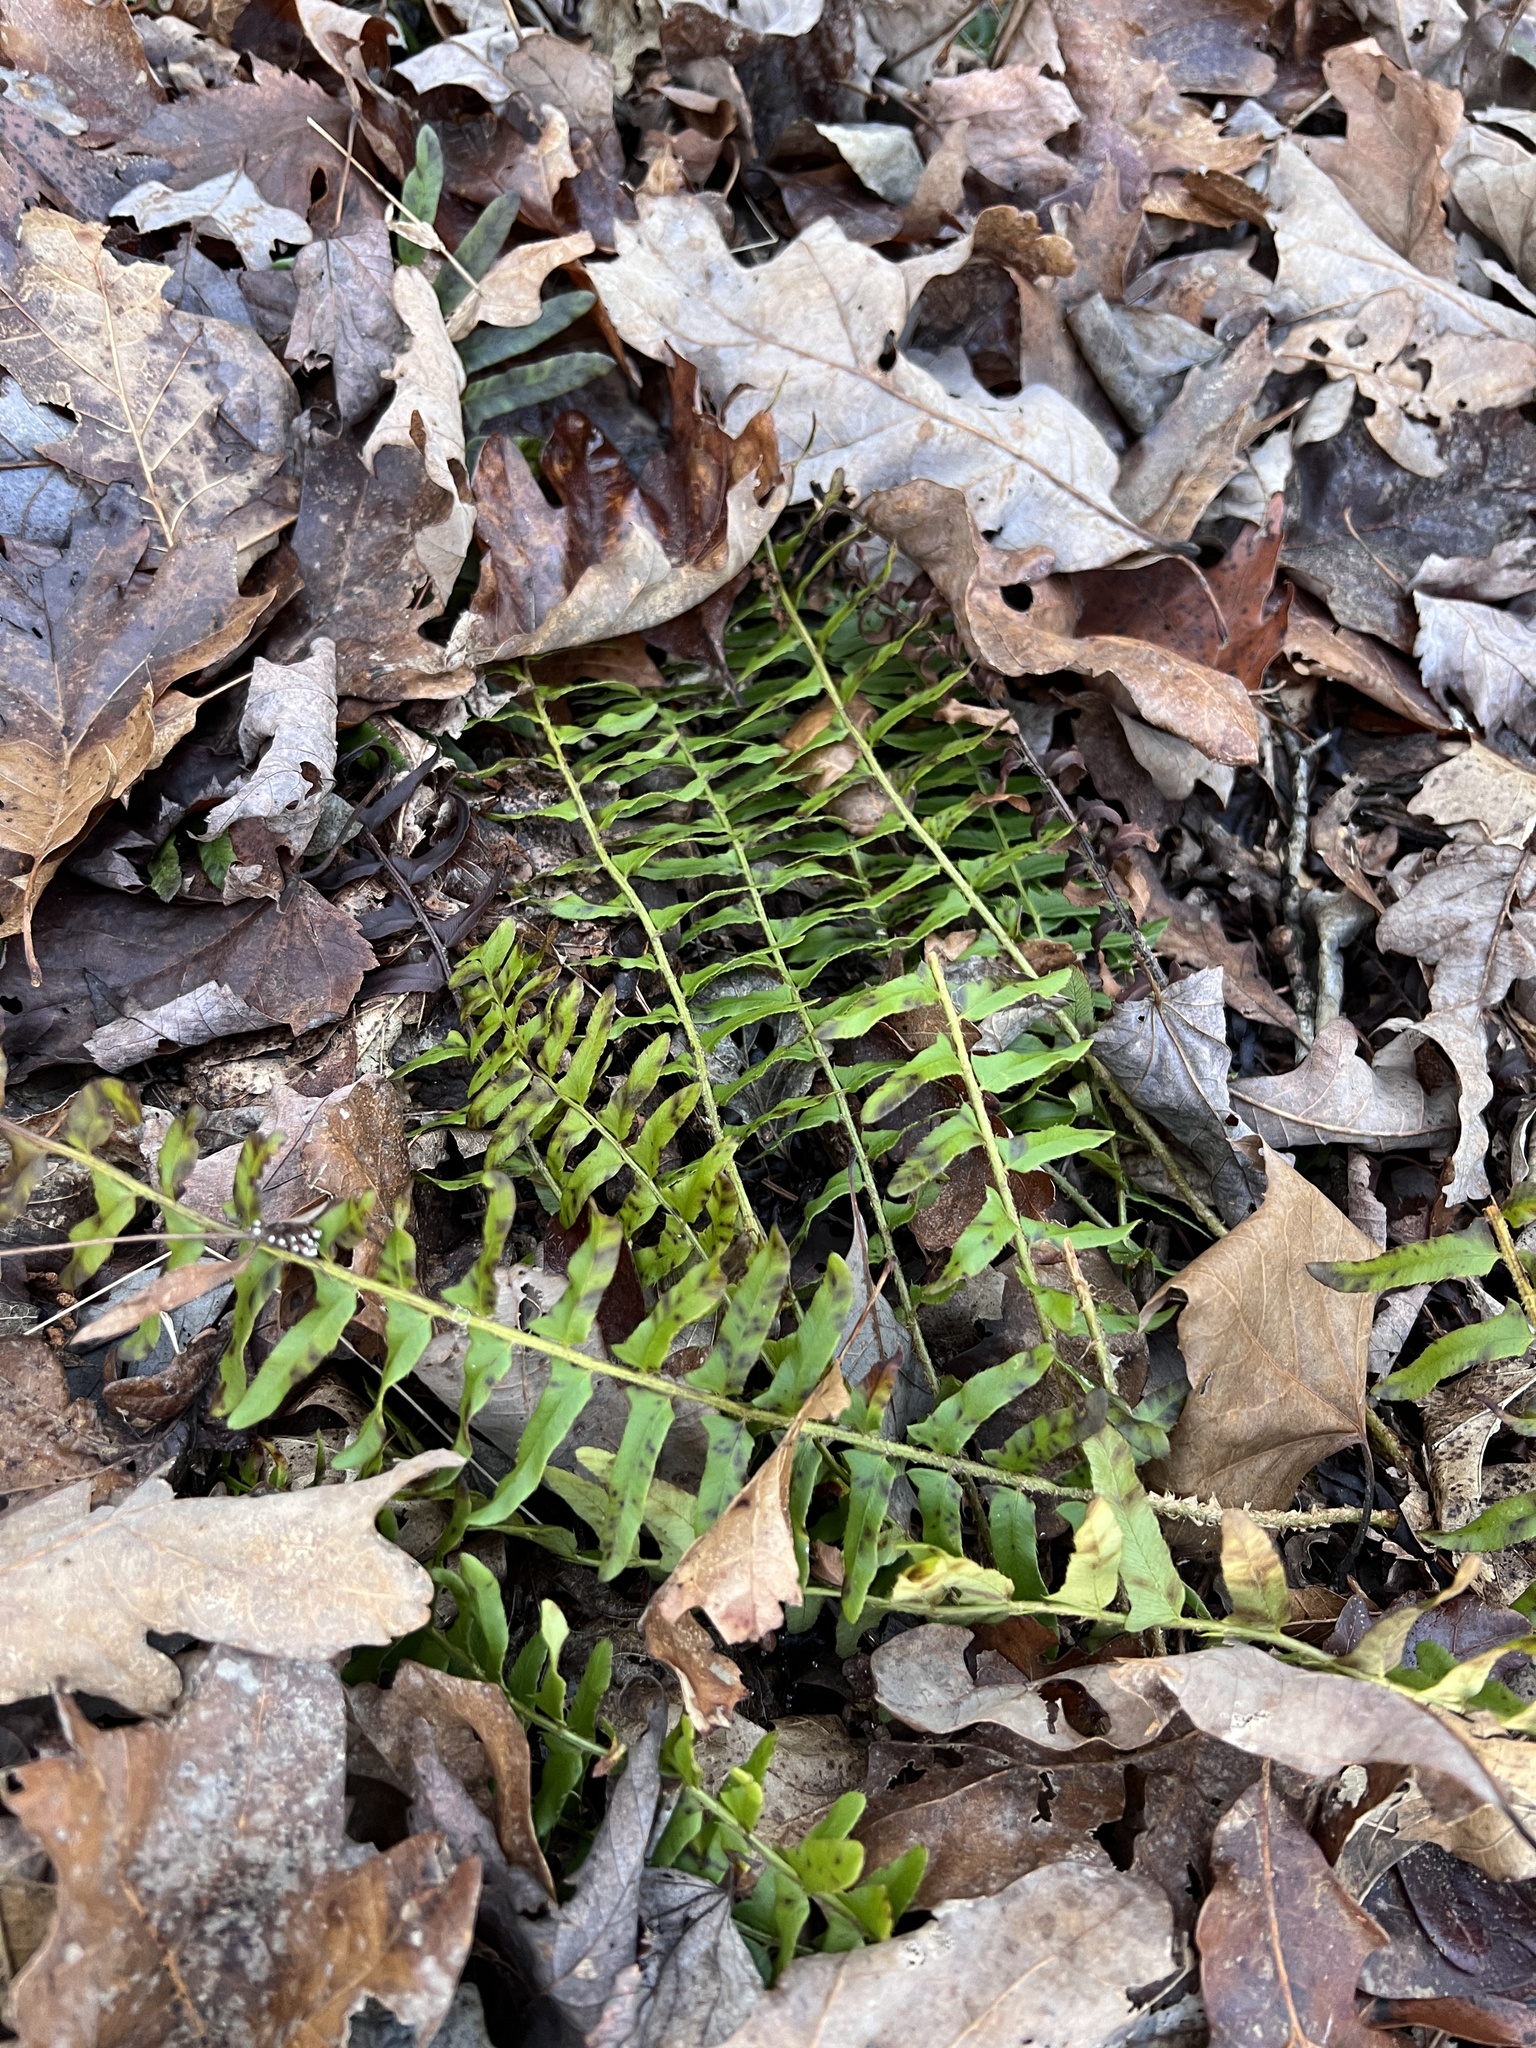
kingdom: Plantae
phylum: Tracheophyta
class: Polypodiopsida
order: Polypodiales
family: Dryopteridaceae
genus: Polystichum
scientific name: Polystichum acrostichoides
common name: Christmas fern
